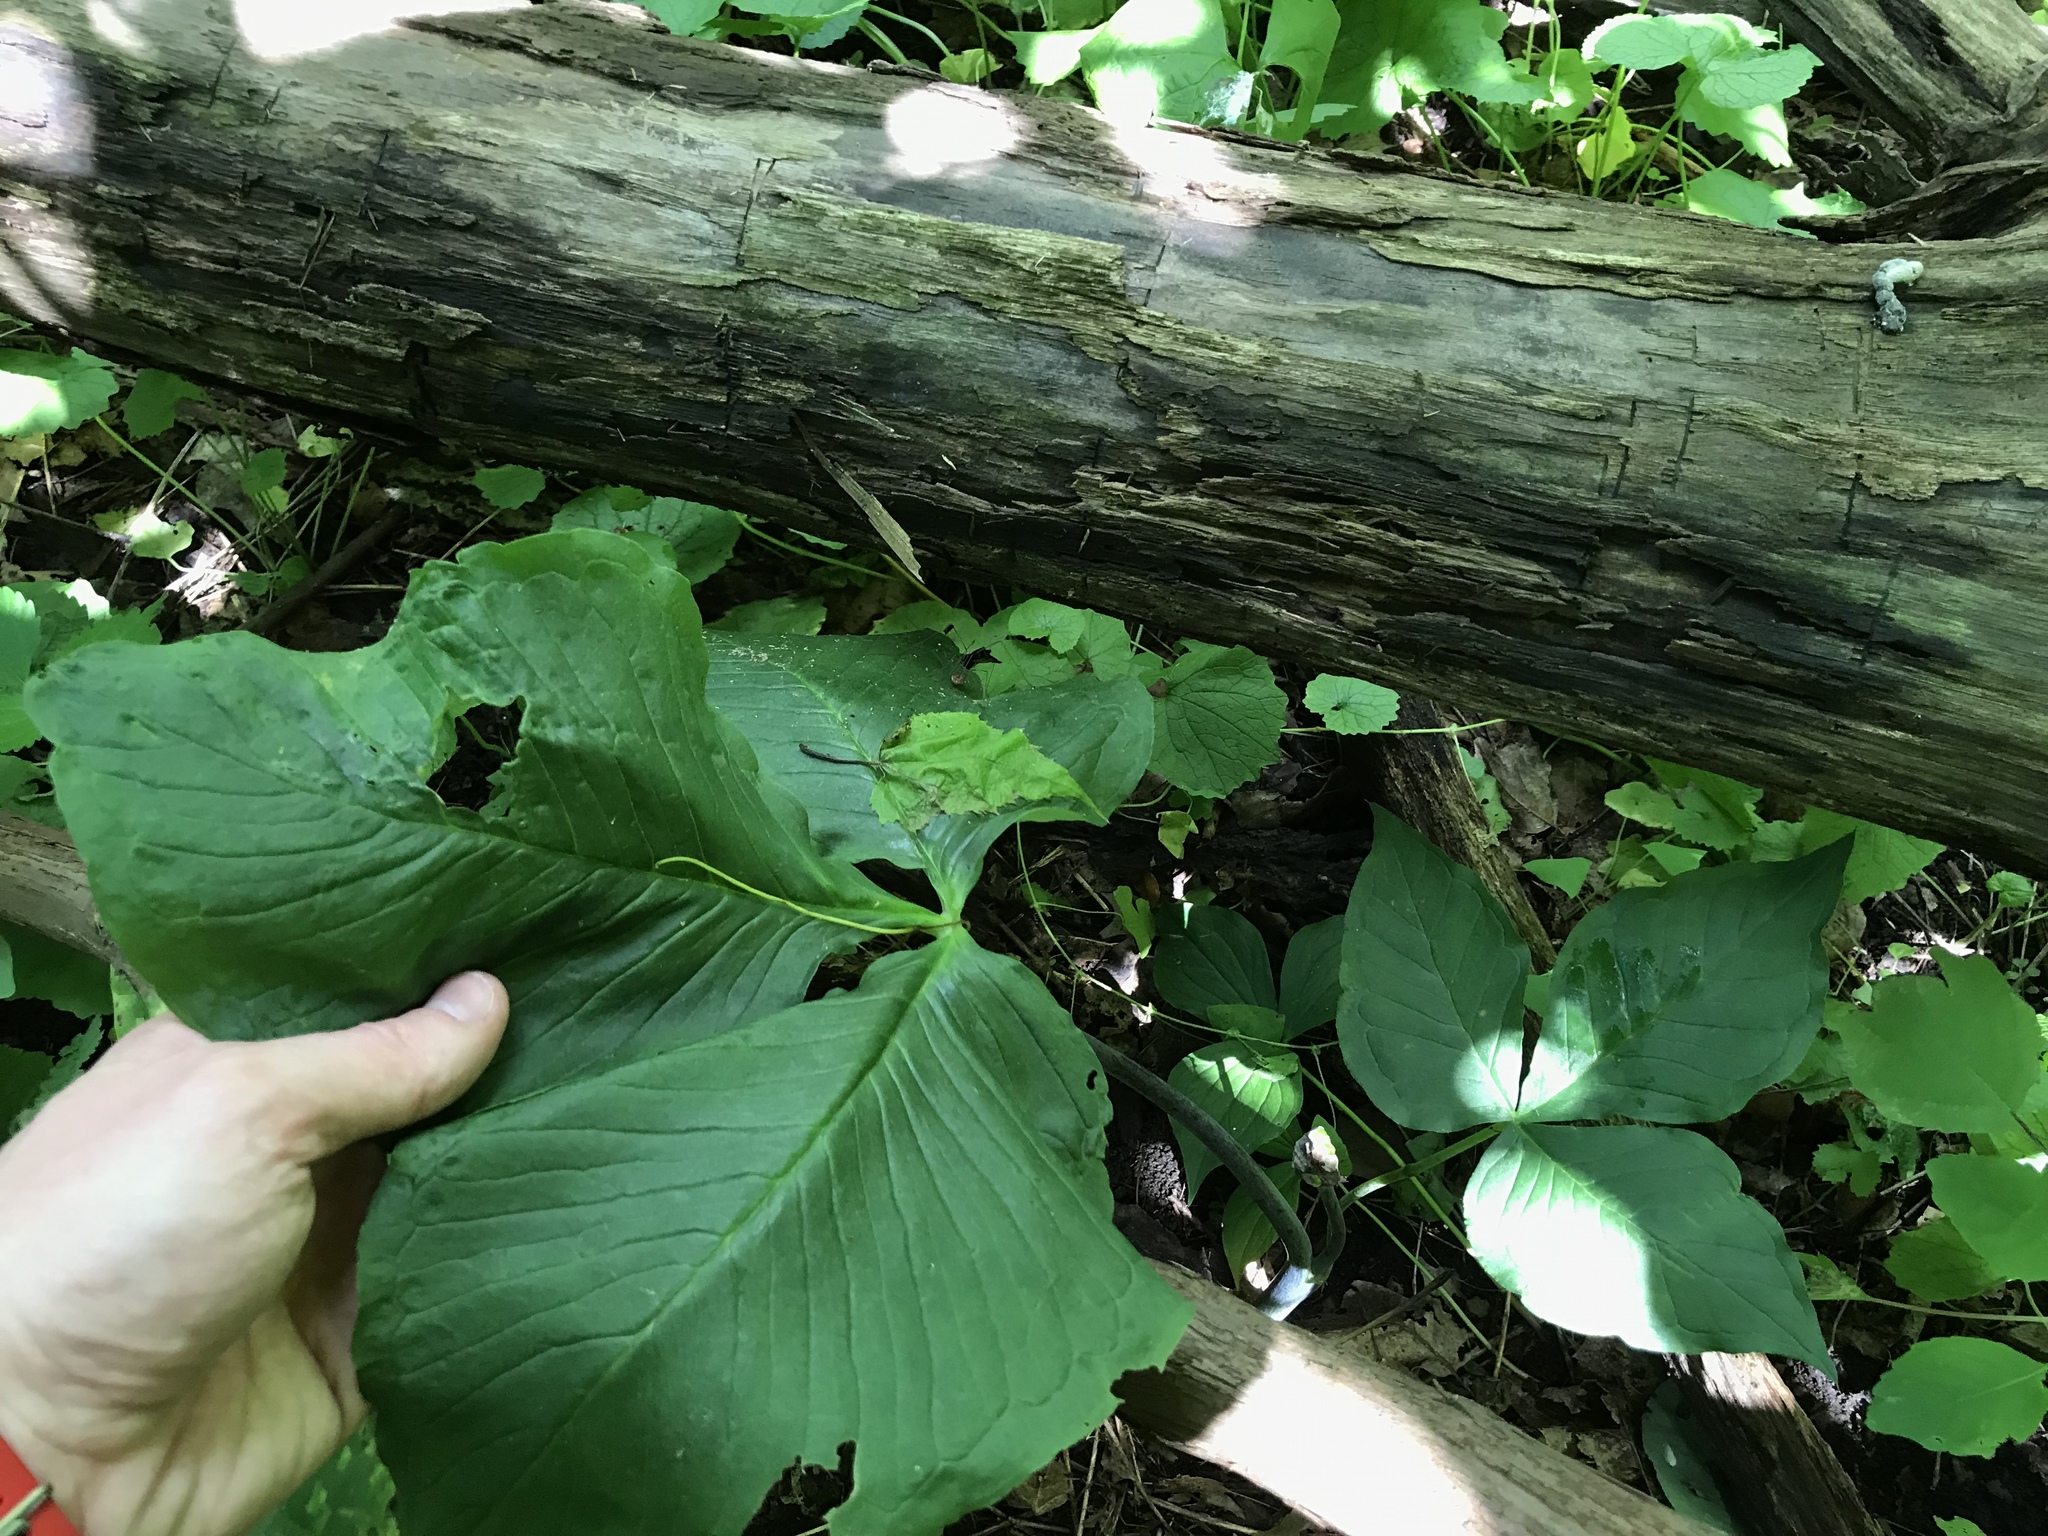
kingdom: Plantae
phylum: Tracheophyta
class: Liliopsida
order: Alismatales
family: Araceae
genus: Arisaema
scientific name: Arisaema triphyllum
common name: Jack-in-the-pulpit
